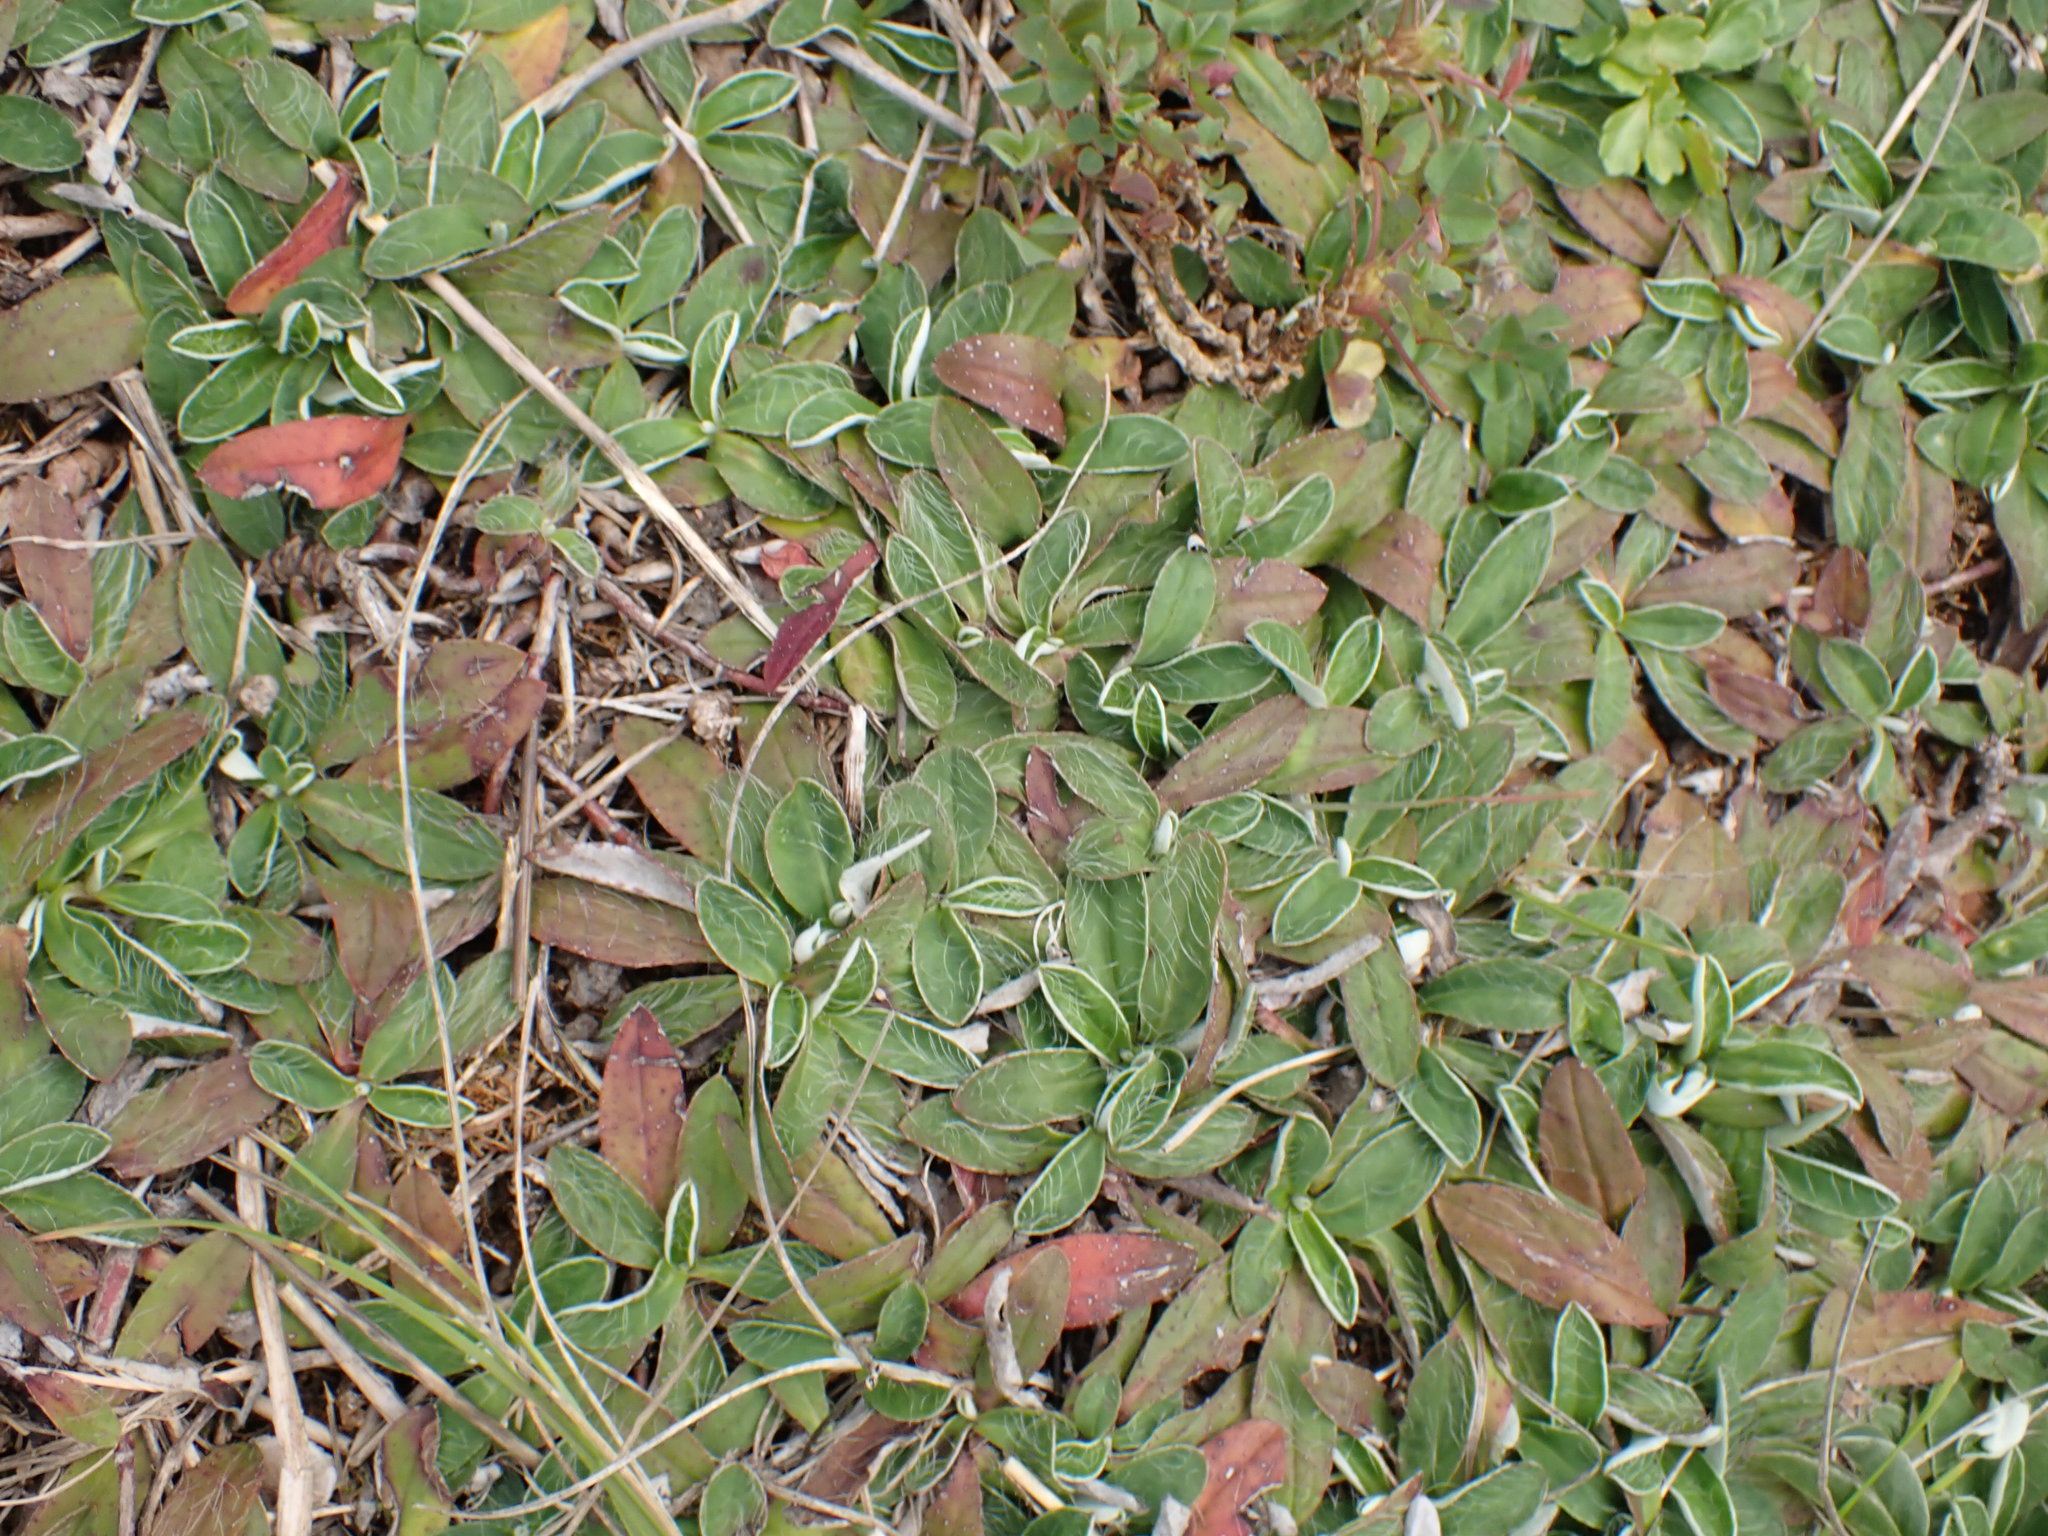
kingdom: Plantae
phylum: Tracheophyta
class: Magnoliopsida
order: Asterales
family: Asteraceae
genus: Pilosella
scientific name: Pilosella officinarum
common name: Mouse-ear hawkweed
